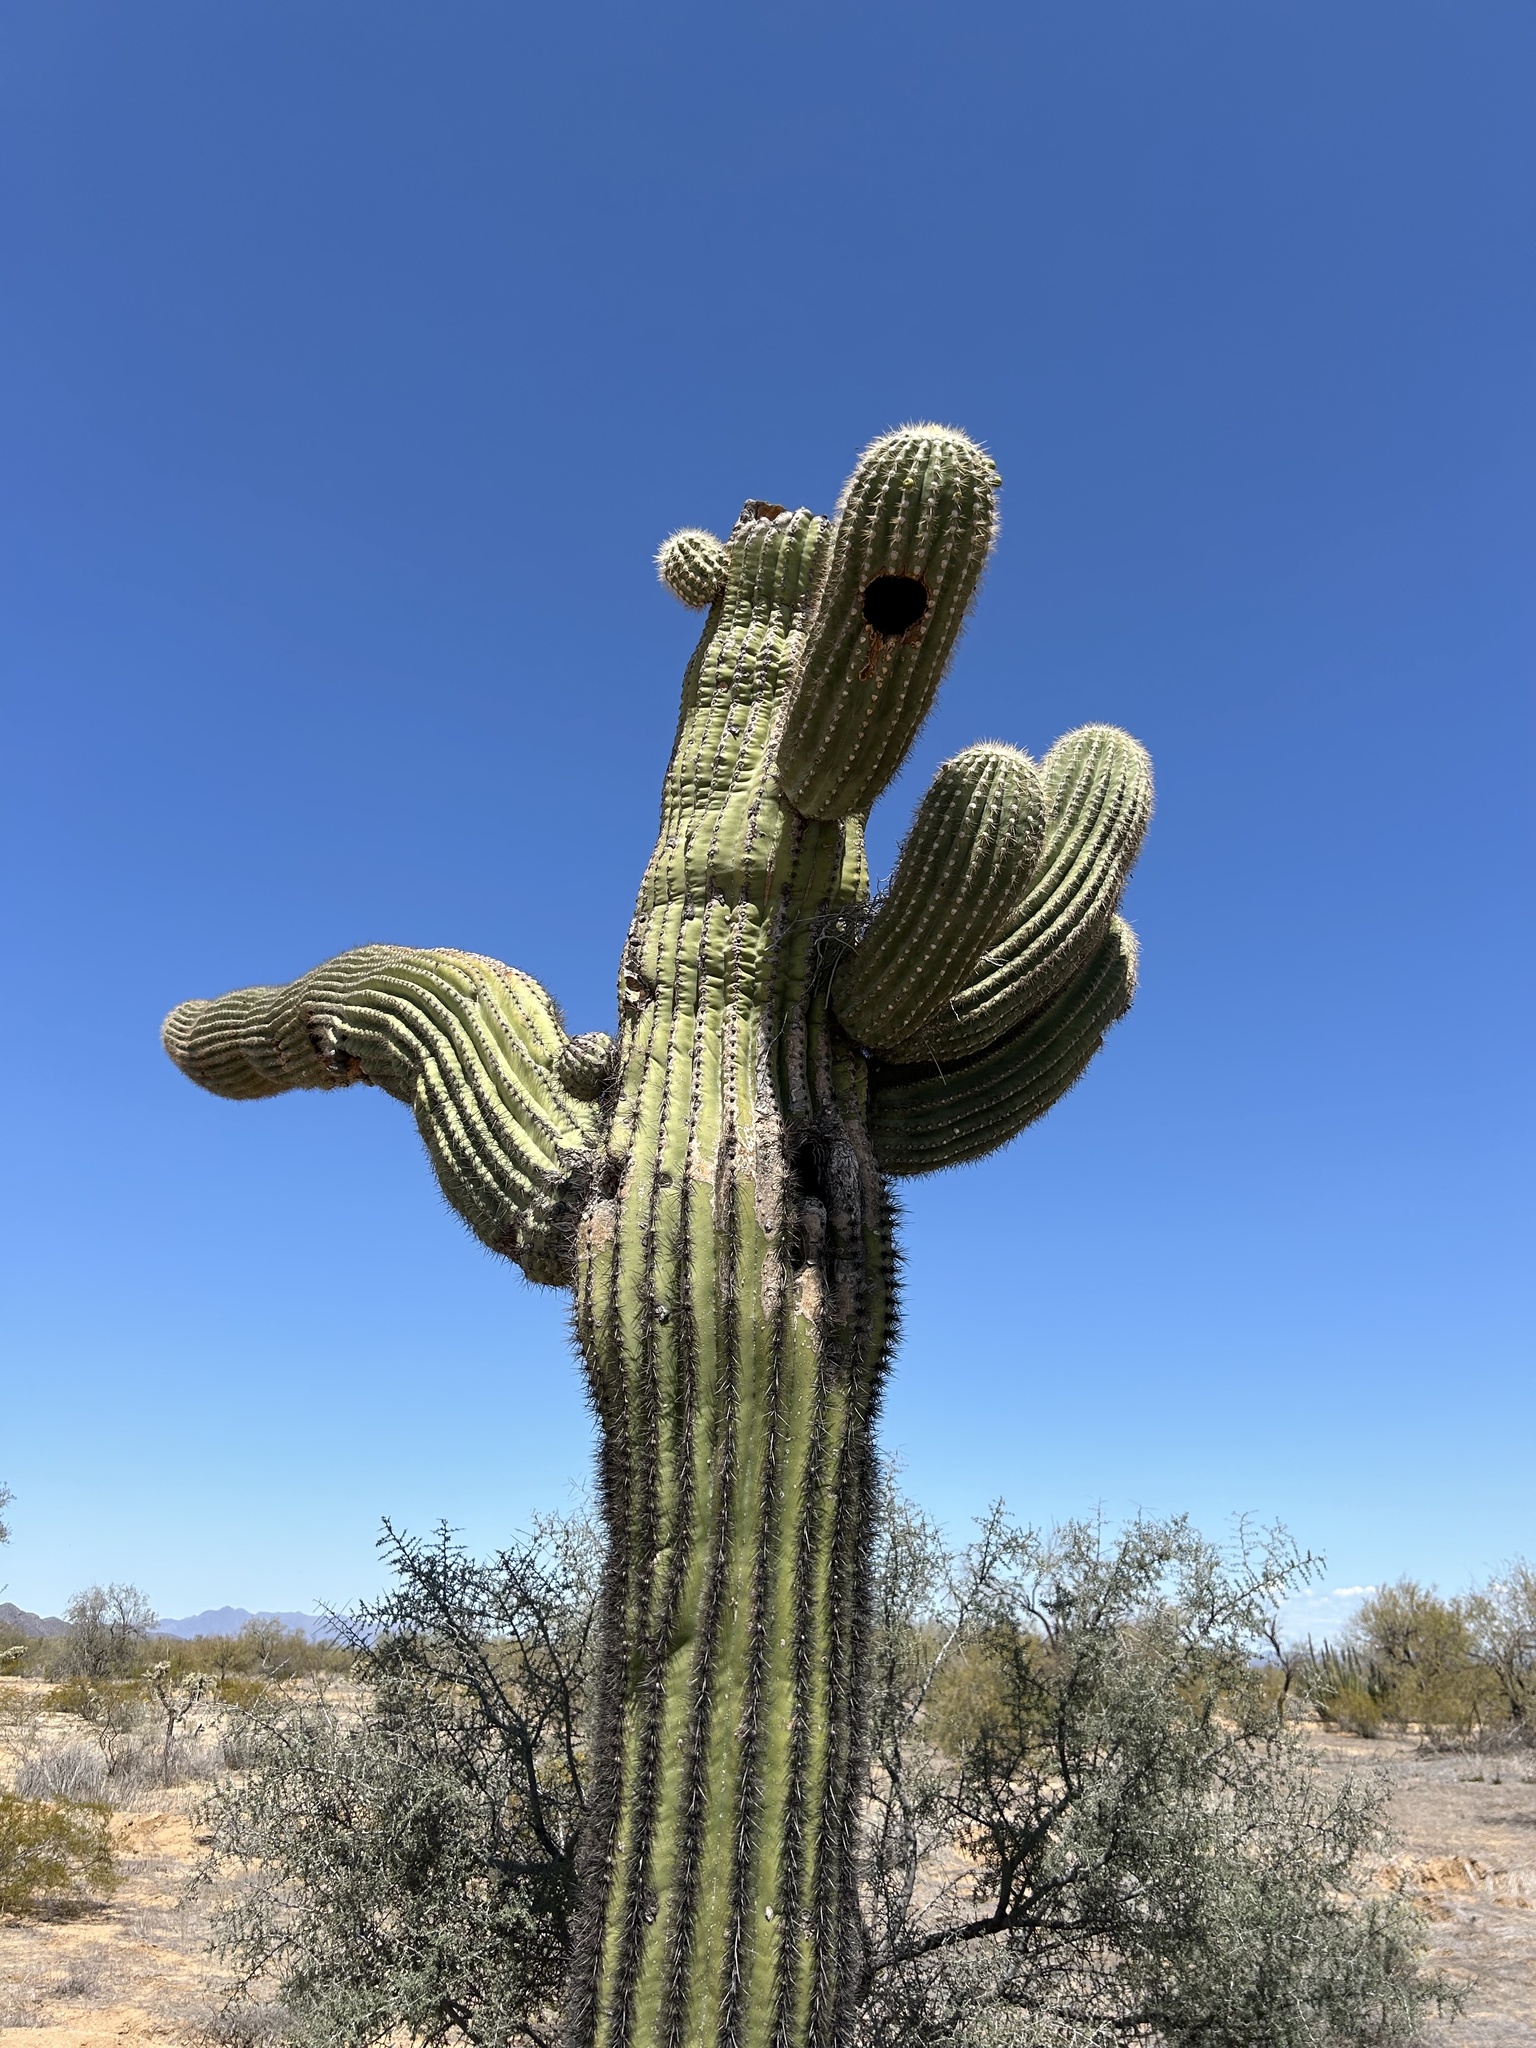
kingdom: Plantae
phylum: Tracheophyta
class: Magnoliopsida
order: Caryophyllales
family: Cactaceae
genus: Carnegiea
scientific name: Carnegiea gigantea
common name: Saguaro
